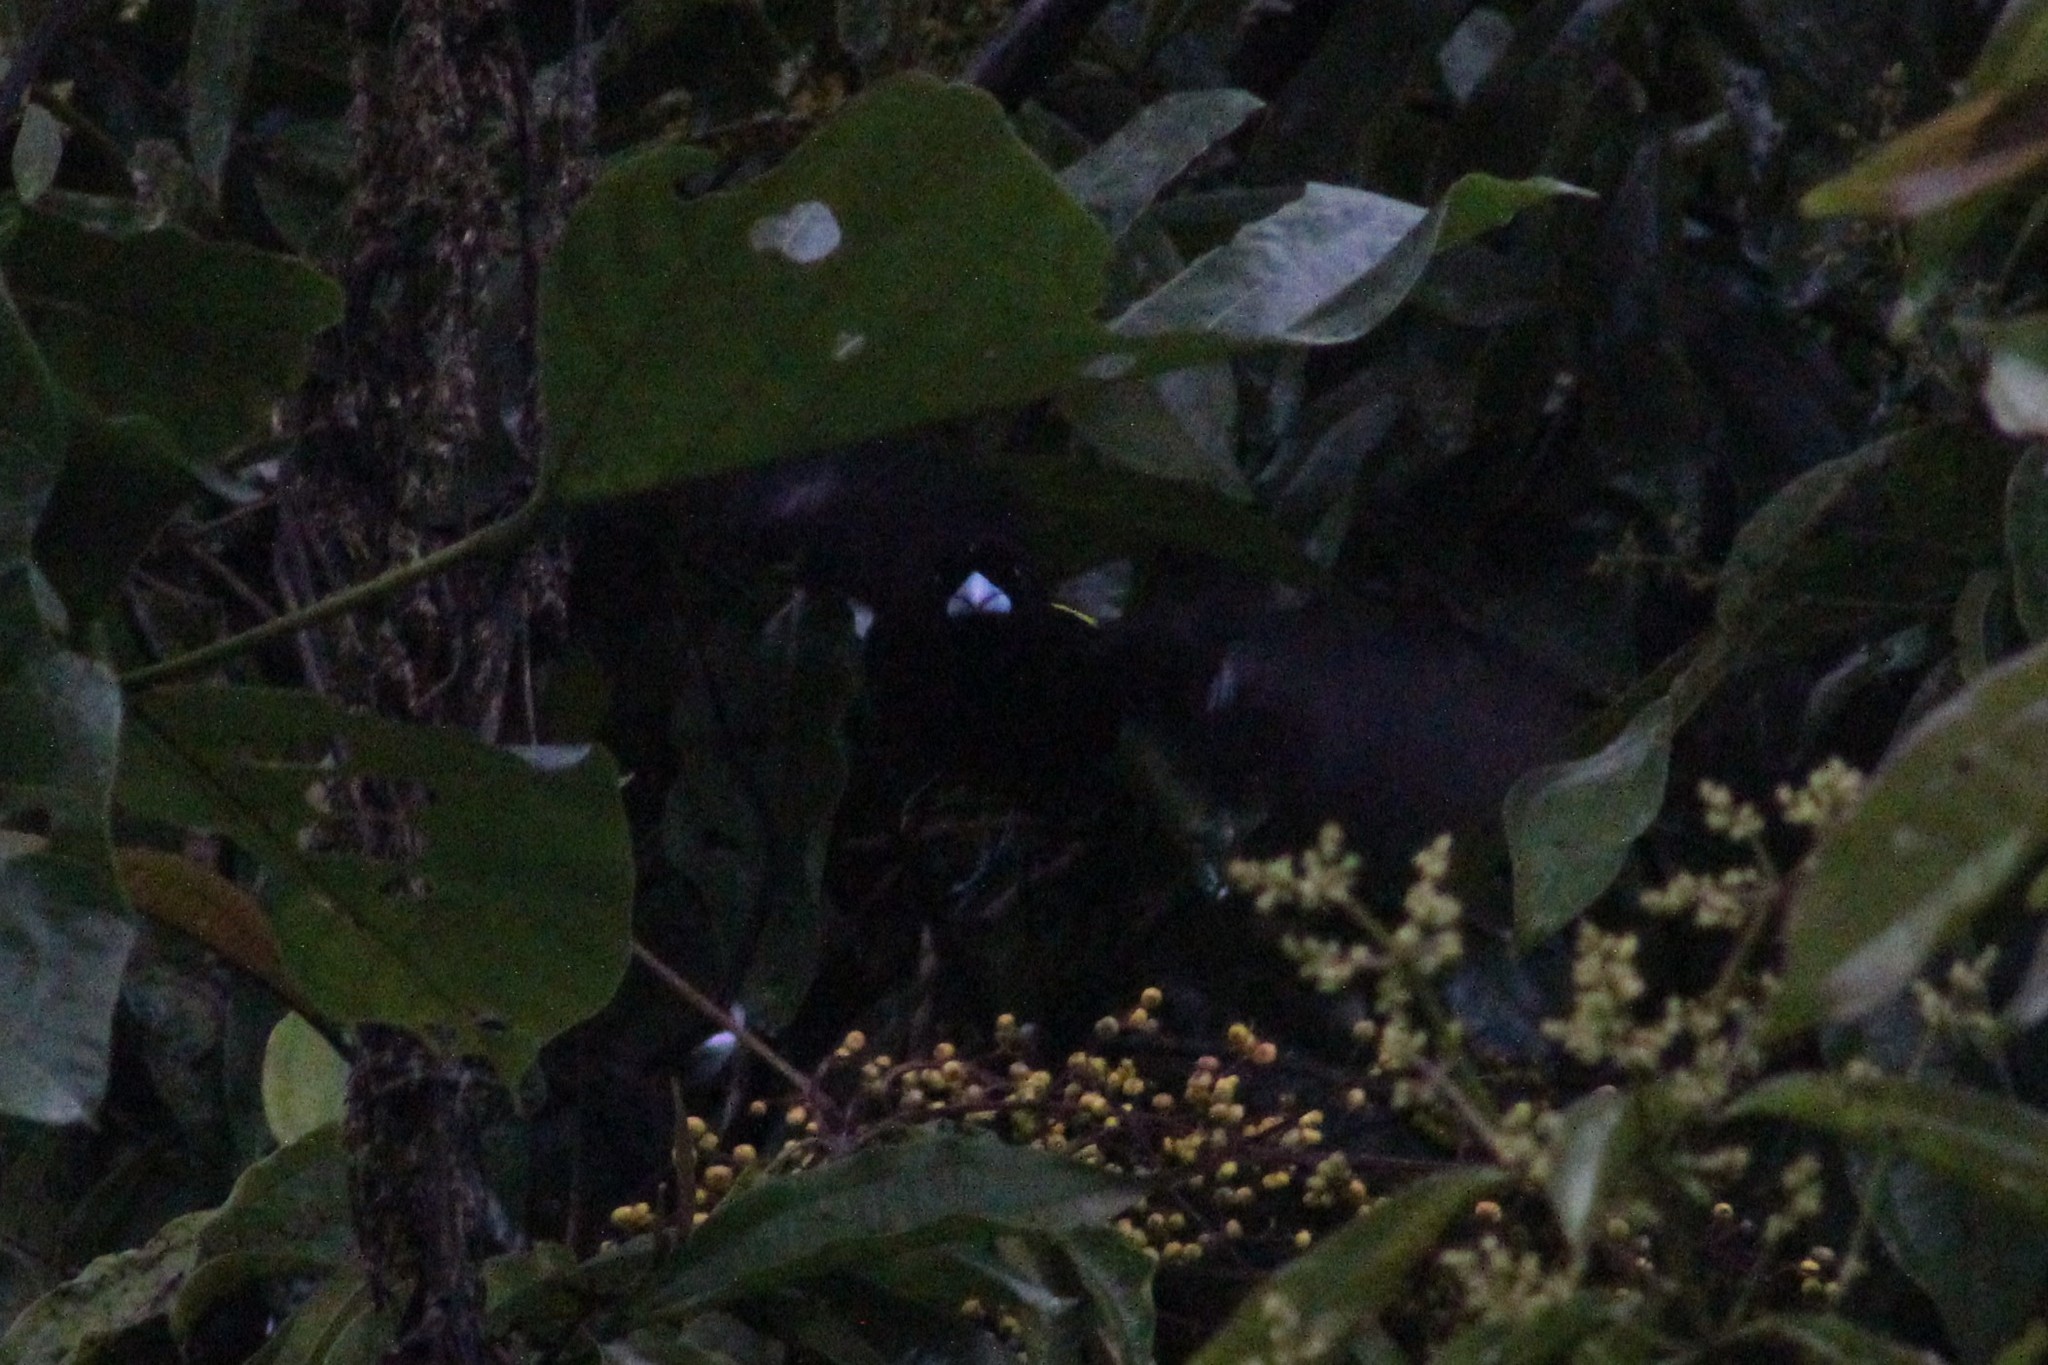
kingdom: Animalia
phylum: Chordata
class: Aves
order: Passeriformes
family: Thraupidae
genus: Ramphocelus
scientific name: Ramphocelus icteronotus
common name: Lemon-rumped tanager
